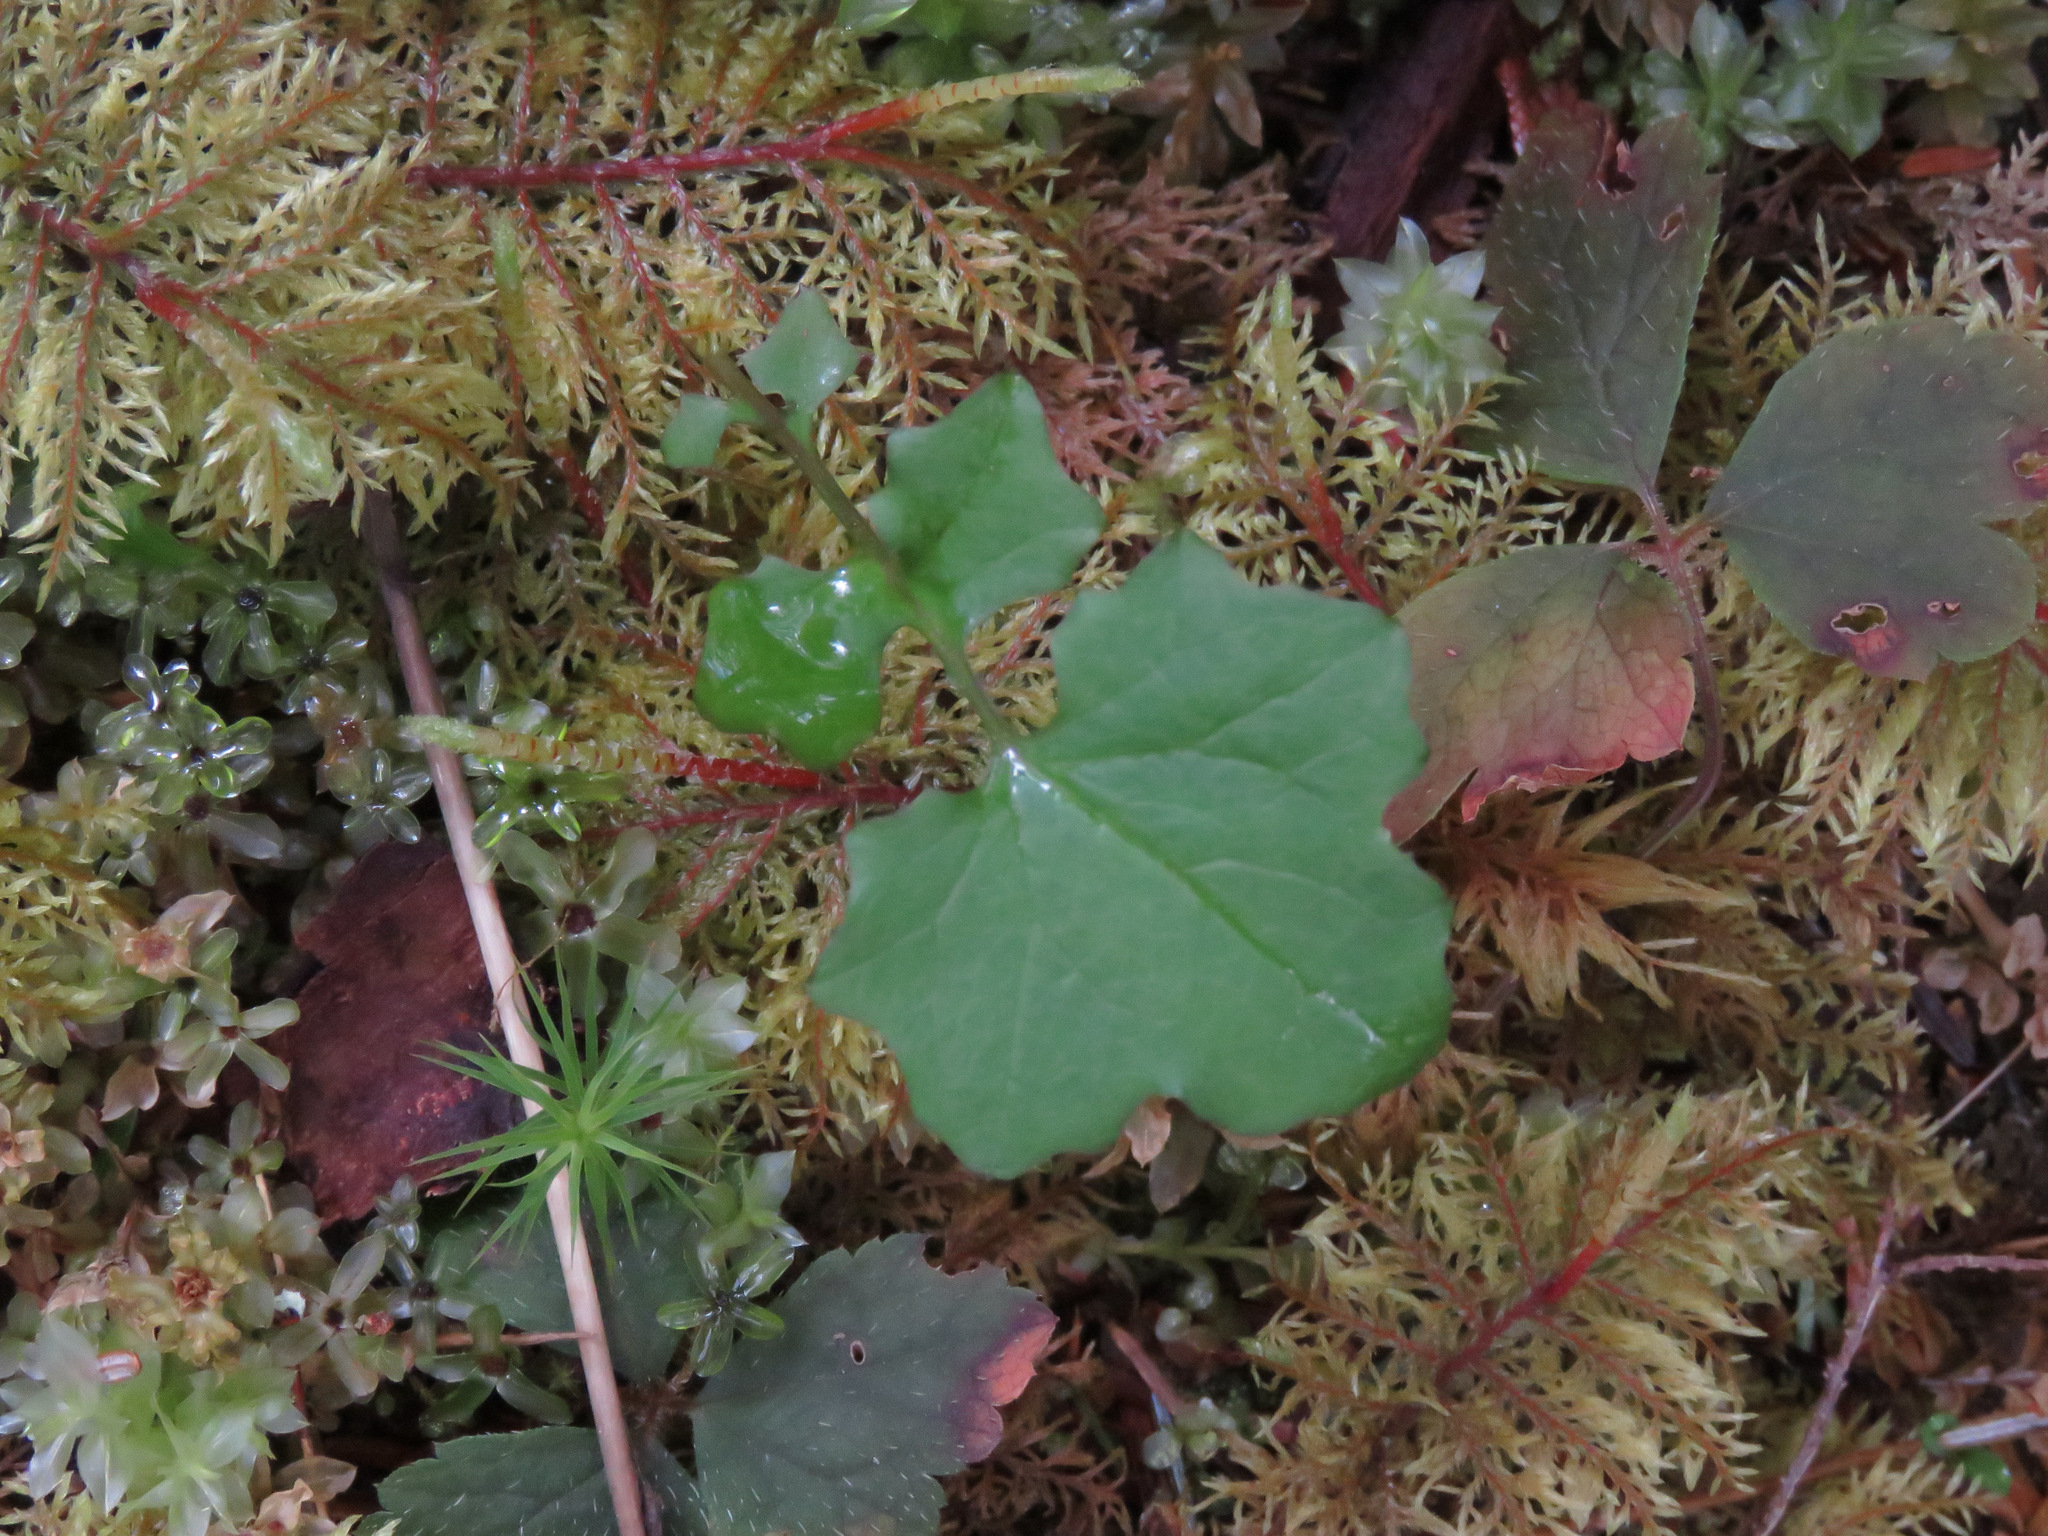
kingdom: Plantae
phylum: Tracheophyta
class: Magnoliopsida
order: Asterales
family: Asteraceae
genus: Mycelis
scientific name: Mycelis muralis
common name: Wall lettuce
